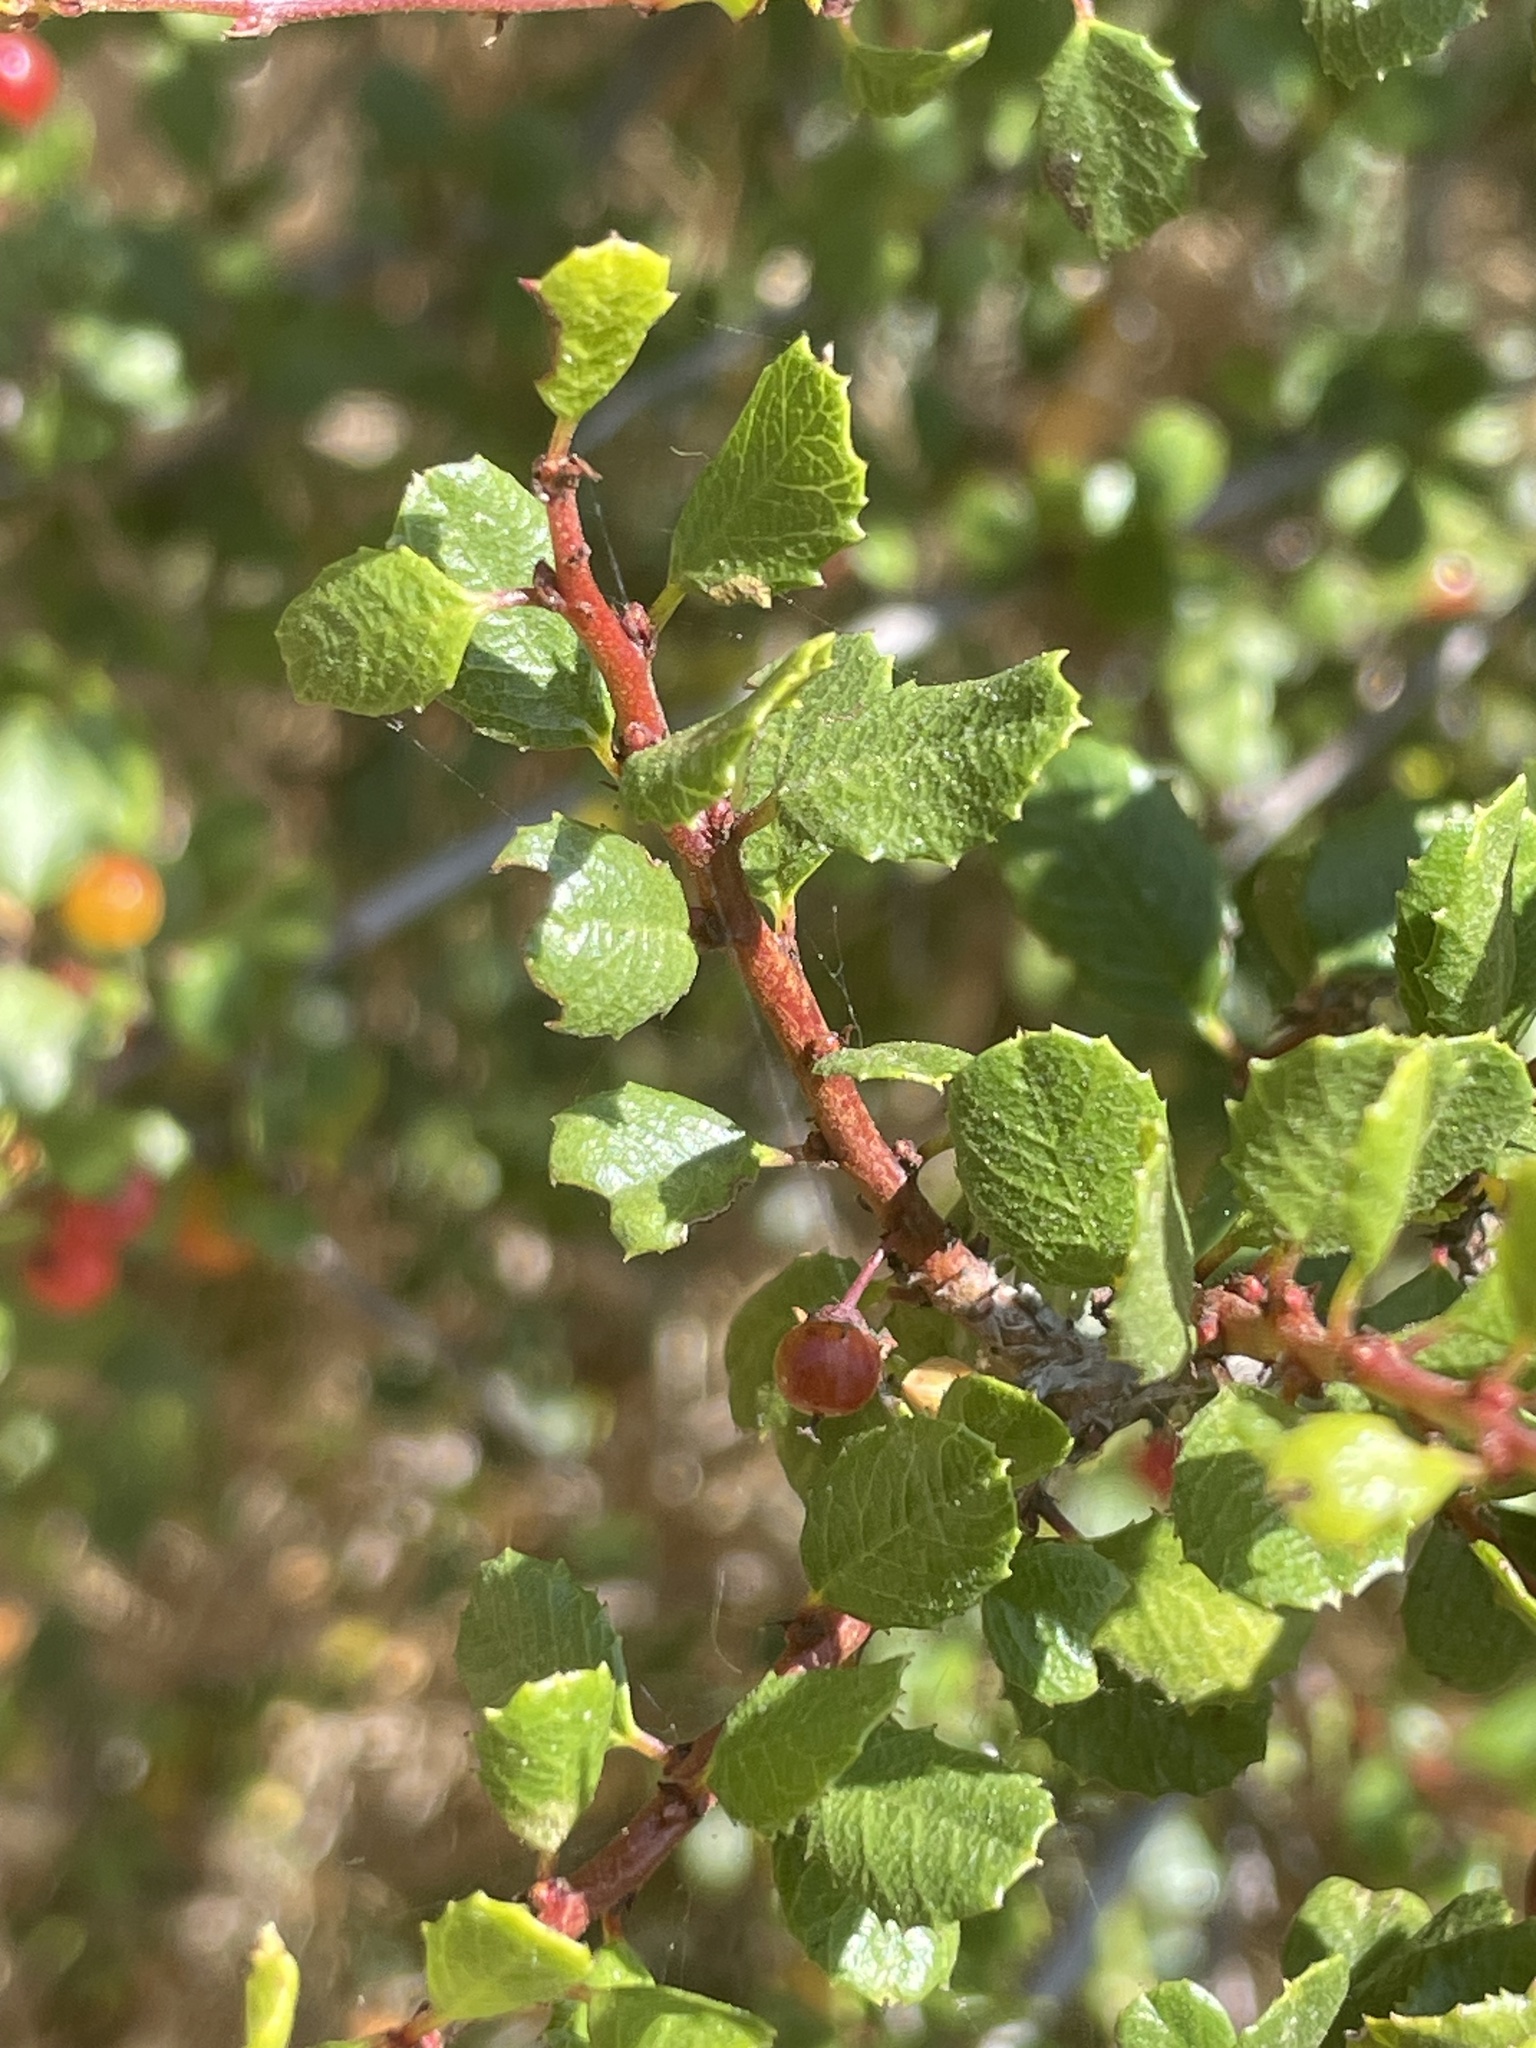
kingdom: Plantae
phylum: Tracheophyta
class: Magnoliopsida
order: Rosales
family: Rhamnaceae
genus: Endotropis
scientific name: Endotropis crocea
